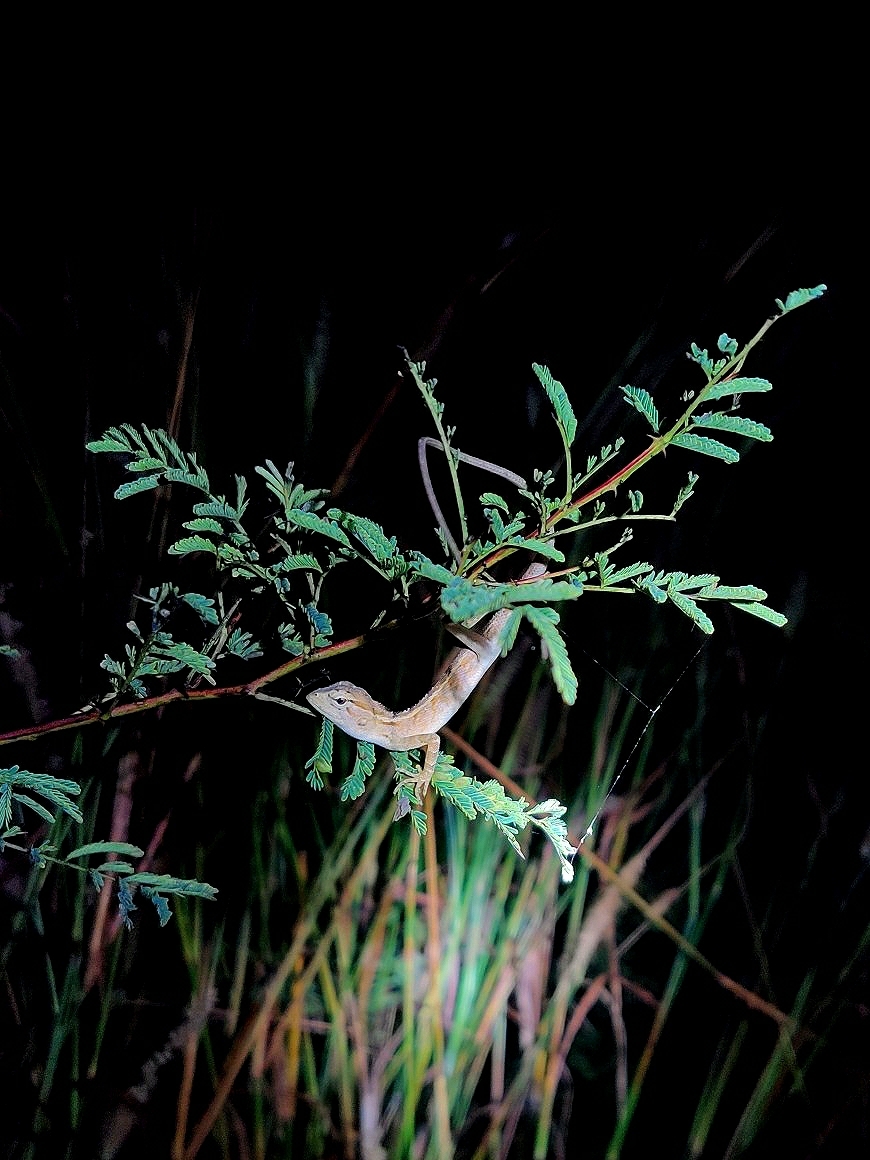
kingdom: Animalia
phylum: Chordata
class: Squamata
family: Agamidae
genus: Calotes
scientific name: Calotes versicolor
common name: Oriental garden lizard
